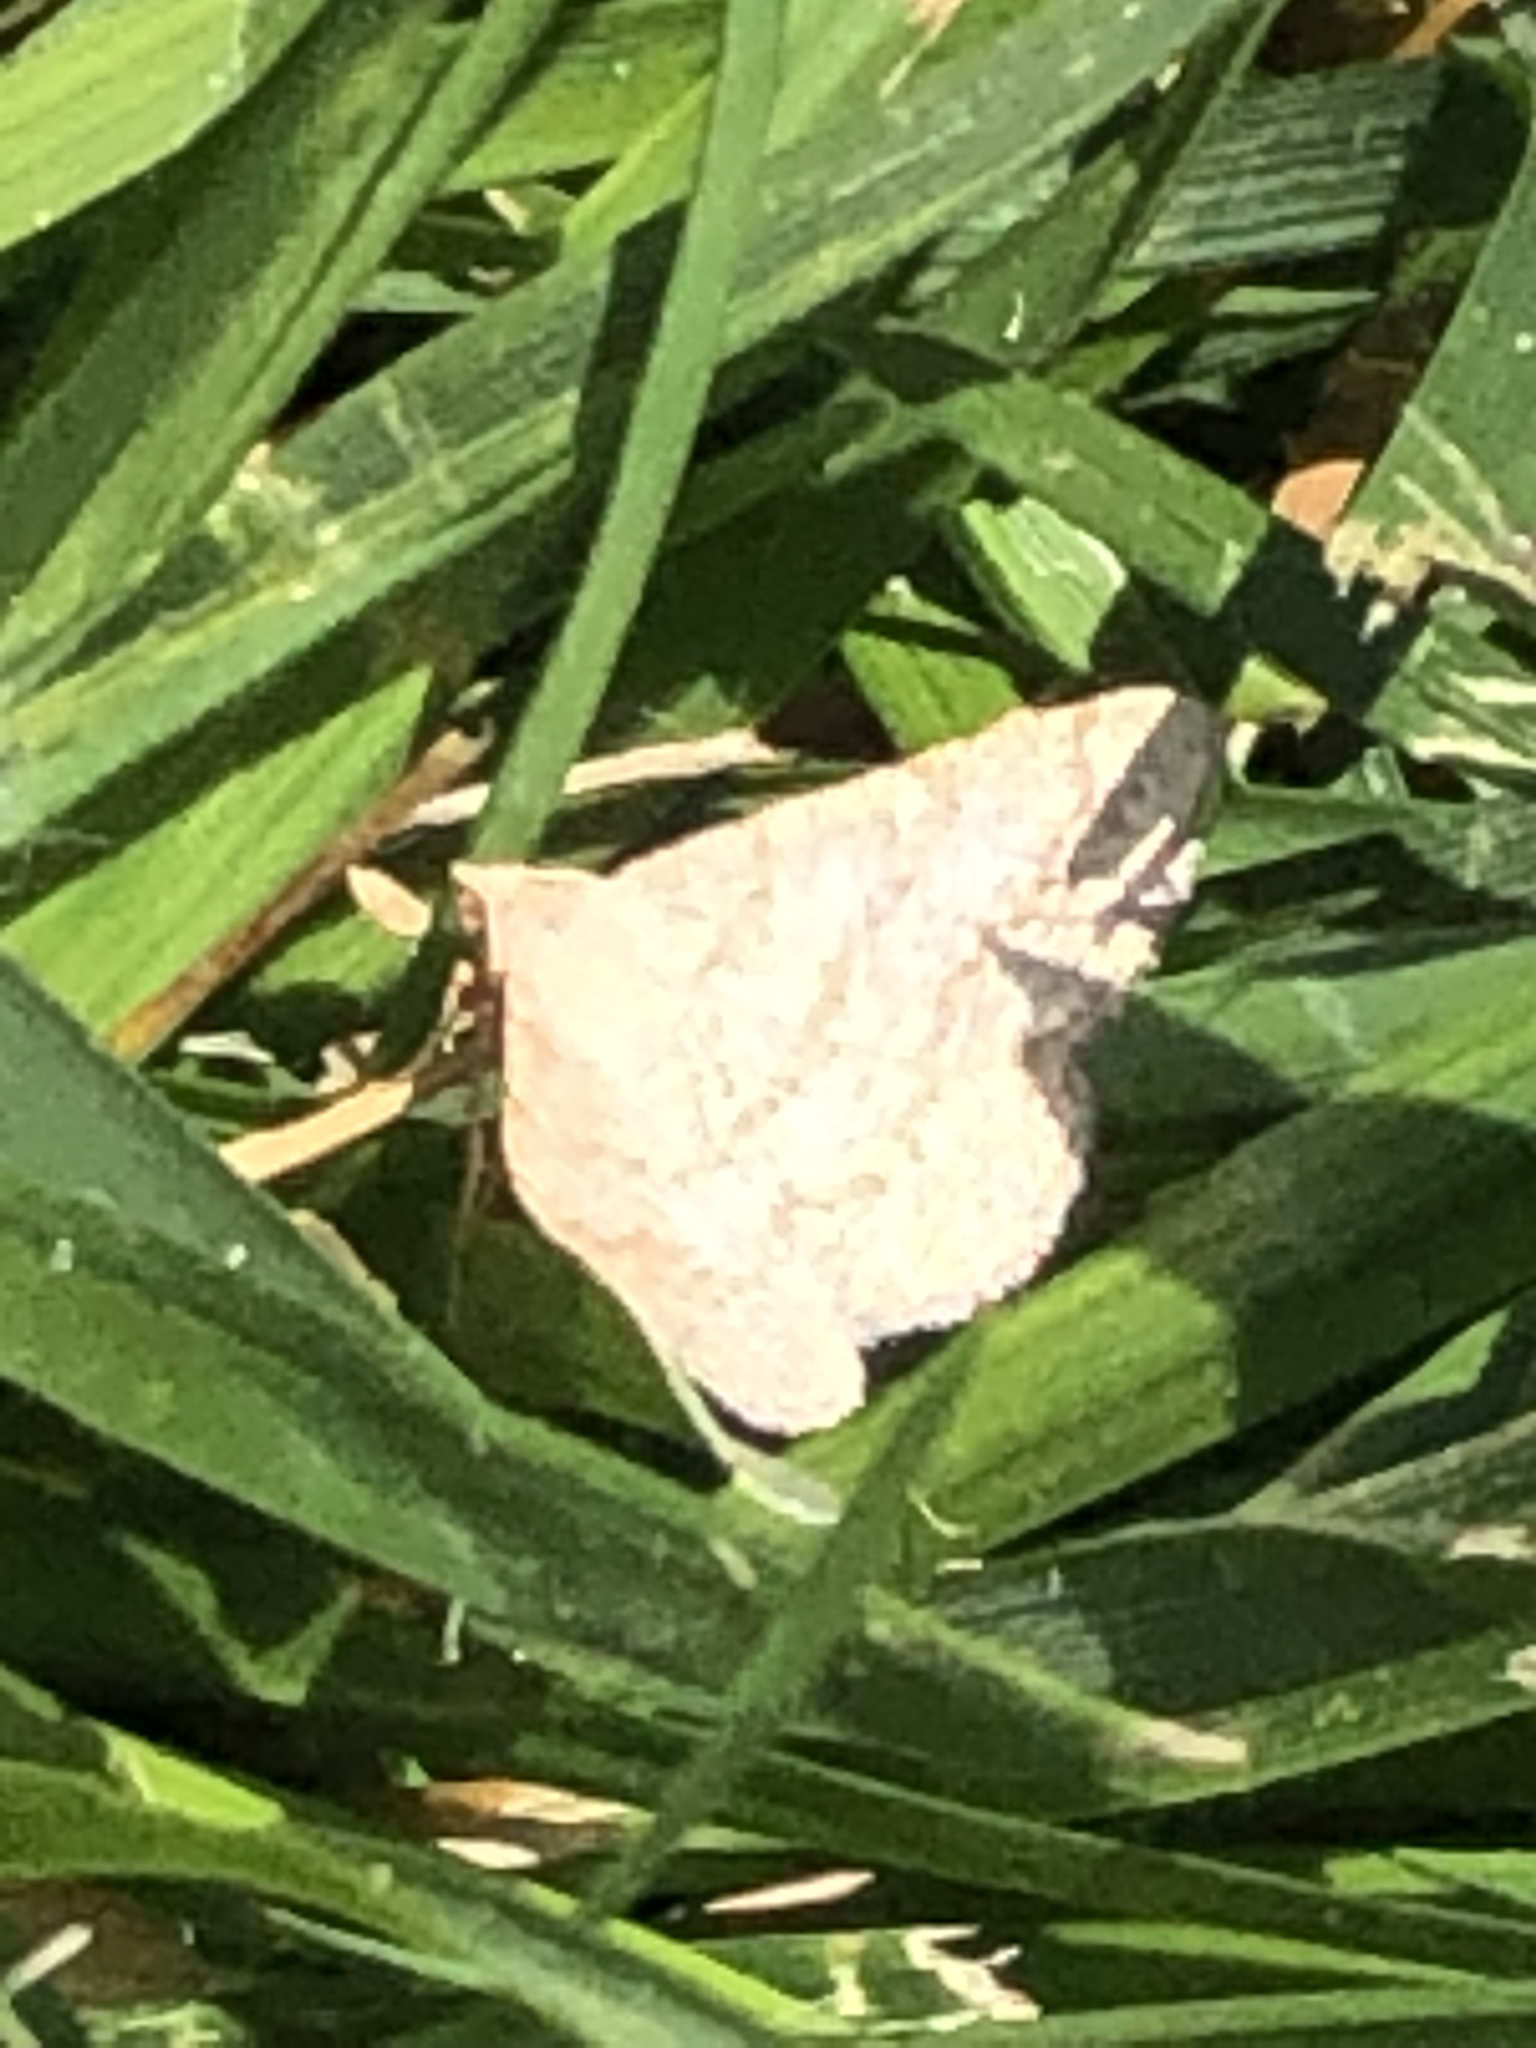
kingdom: Animalia
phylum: Arthropoda
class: Insecta
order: Lepidoptera
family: Geometridae
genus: Digrammia
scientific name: Digrammia ocellinata
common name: Faint-spotted angle
